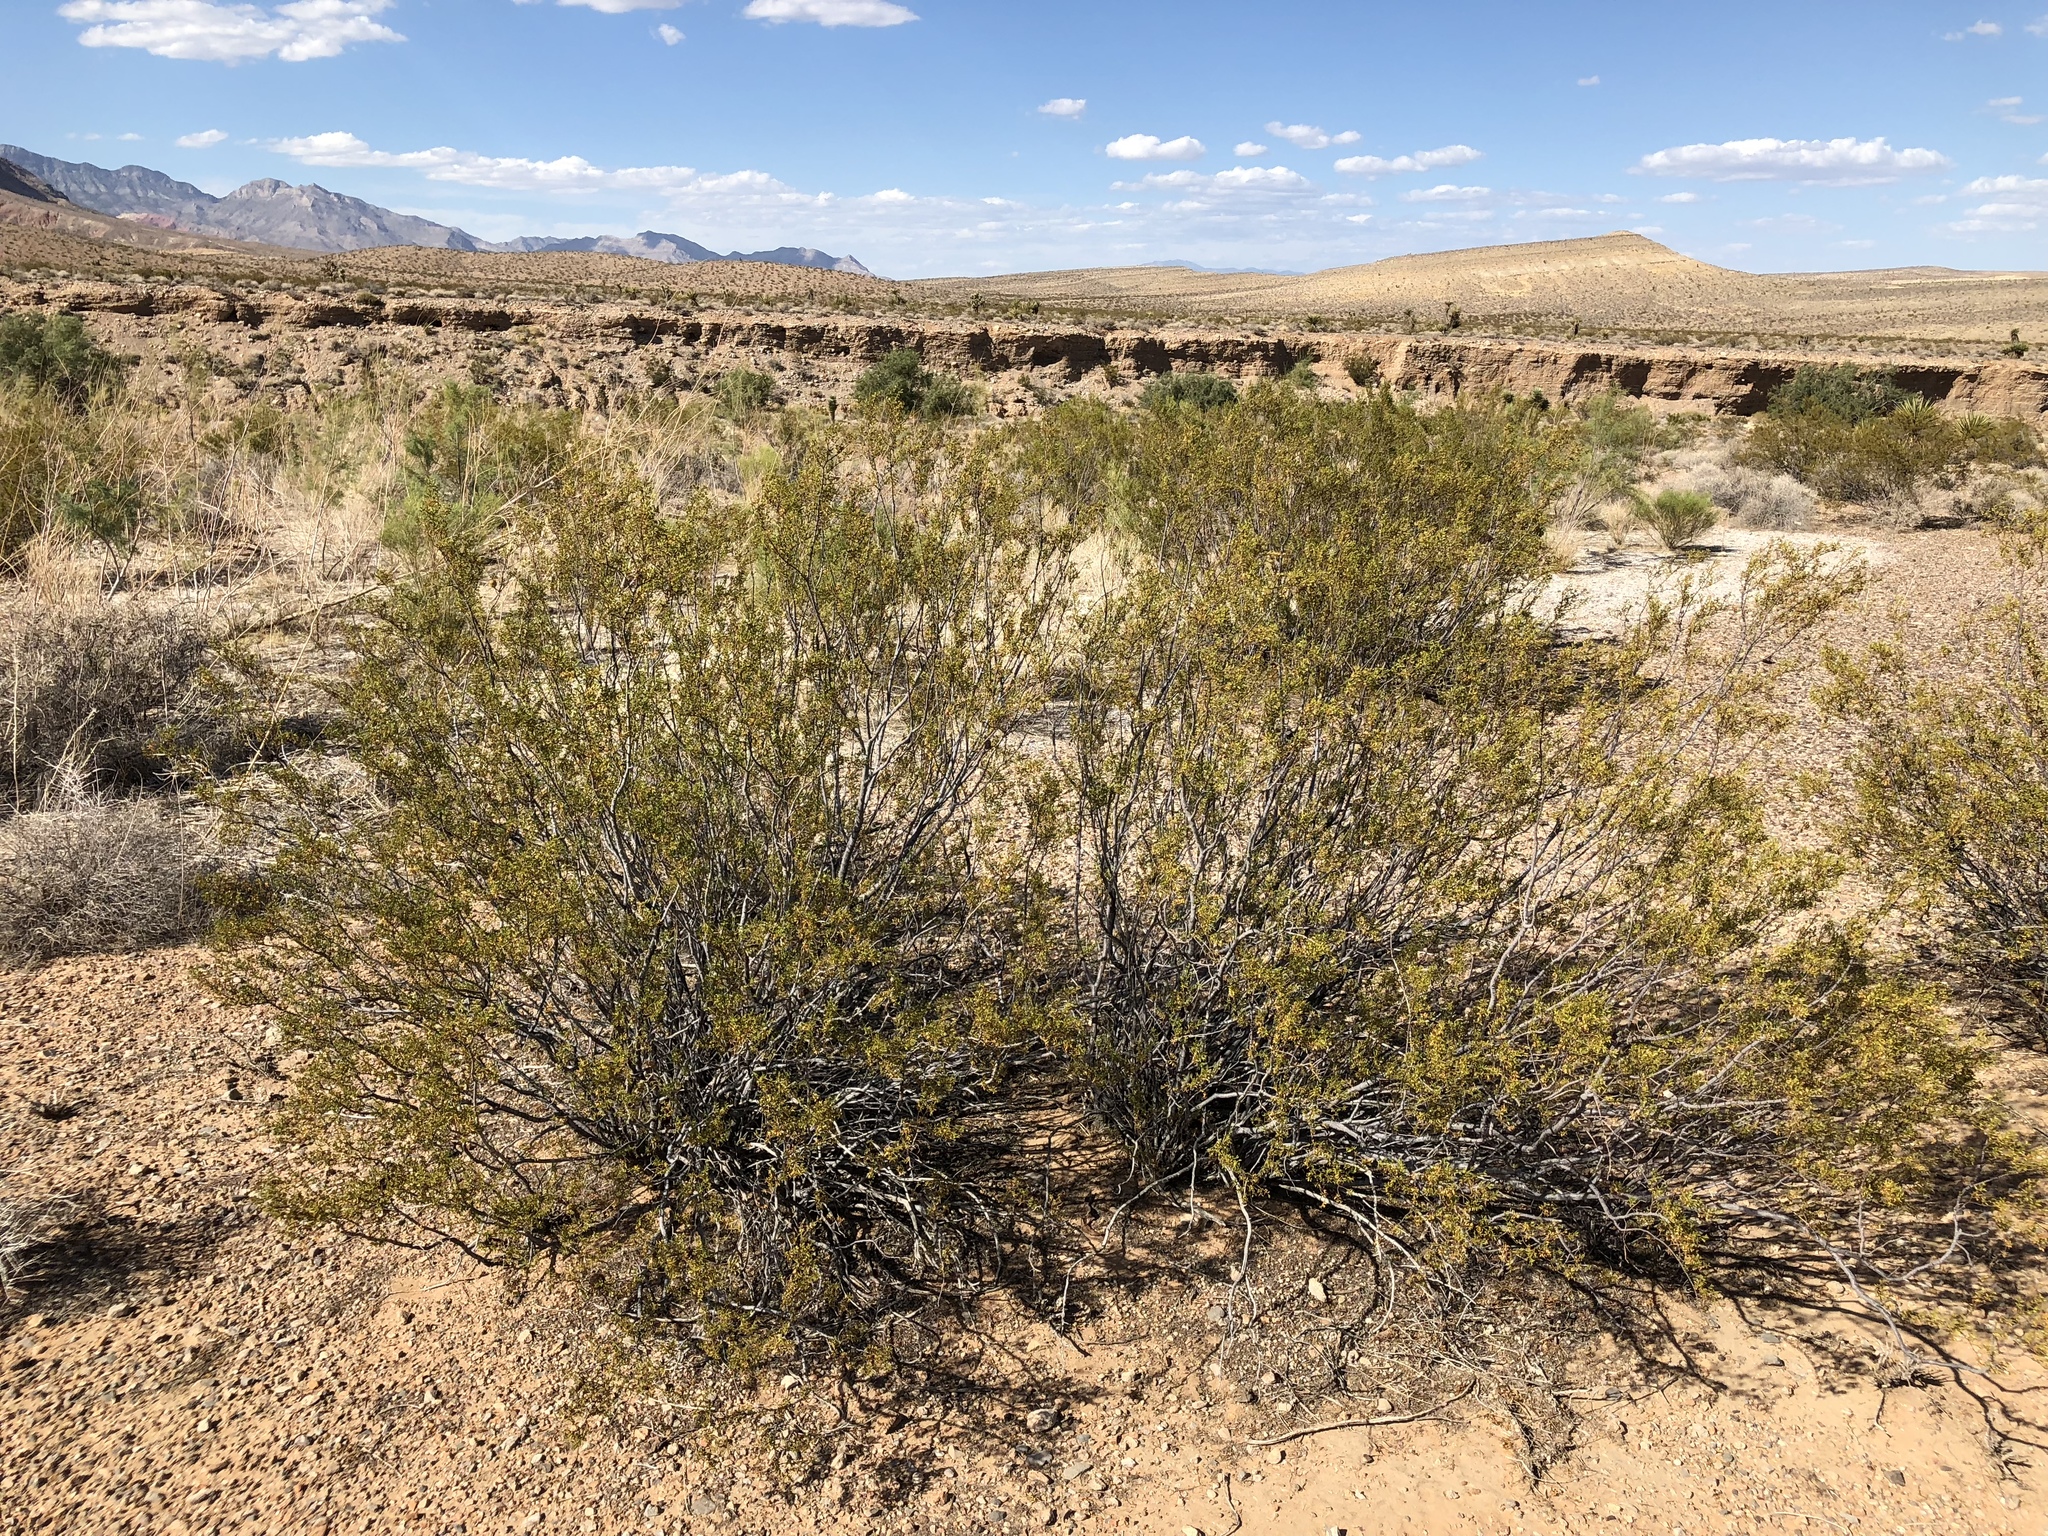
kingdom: Plantae
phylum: Tracheophyta
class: Magnoliopsida
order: Zygophyllales
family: Zygophyllaceae
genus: Larrea
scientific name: Larrea tridentata
